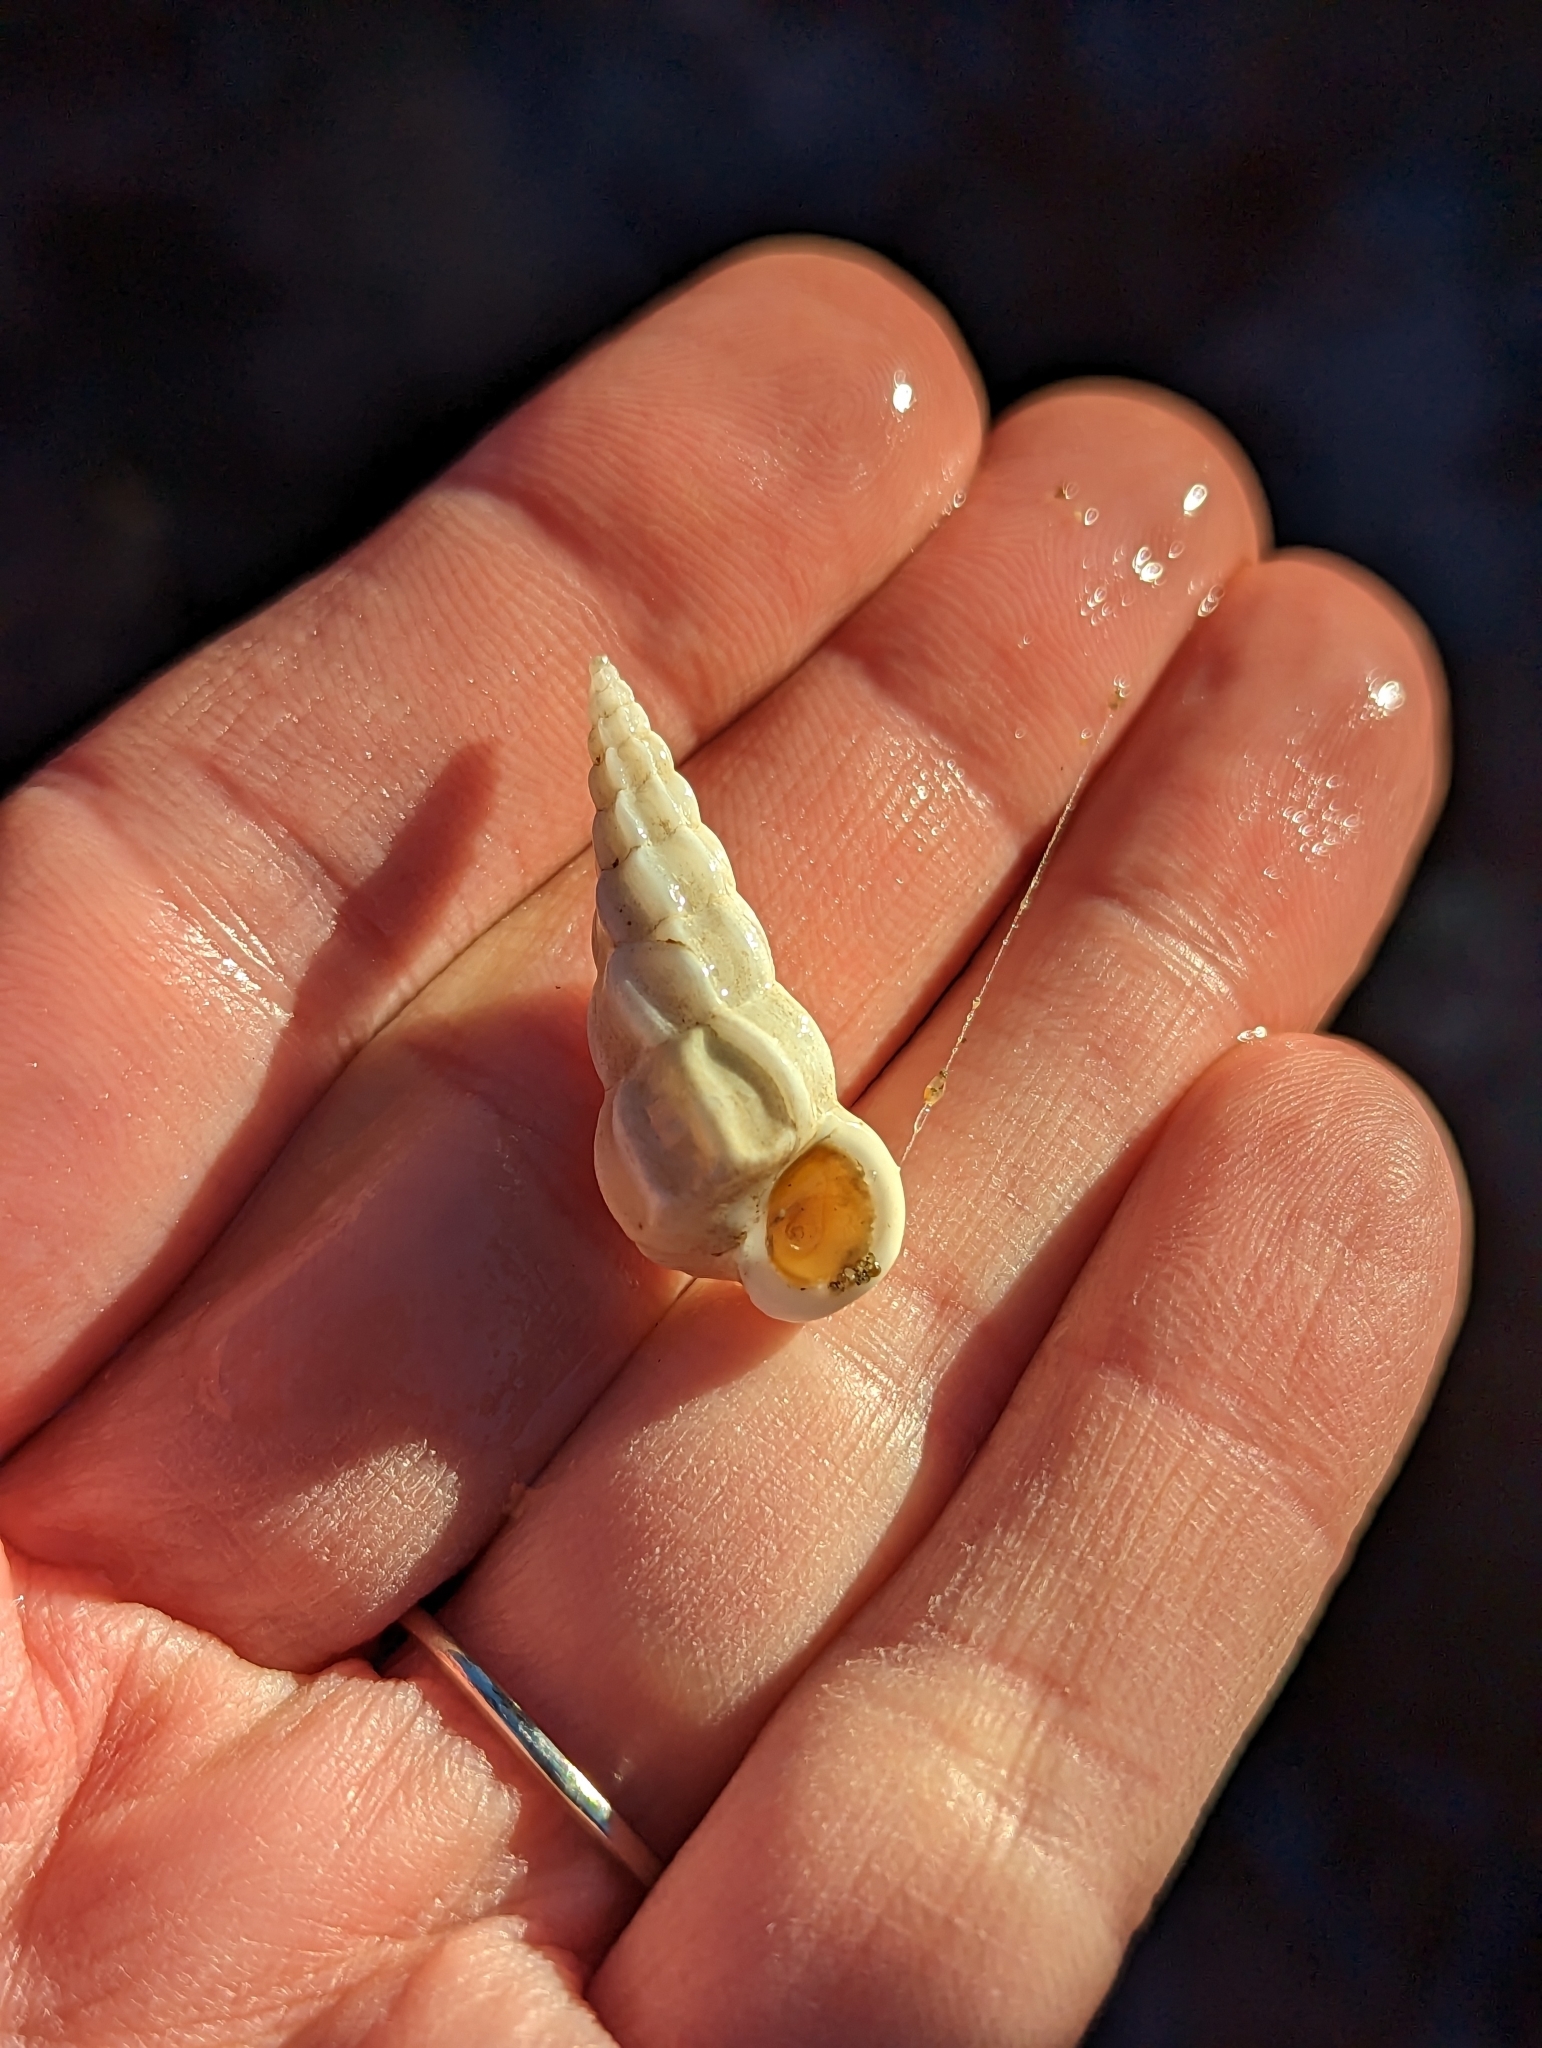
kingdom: Animalia
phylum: Mollusca
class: Gastropoda
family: Epitoniidae
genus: Opalia
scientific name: Opalia wroblewskyi
